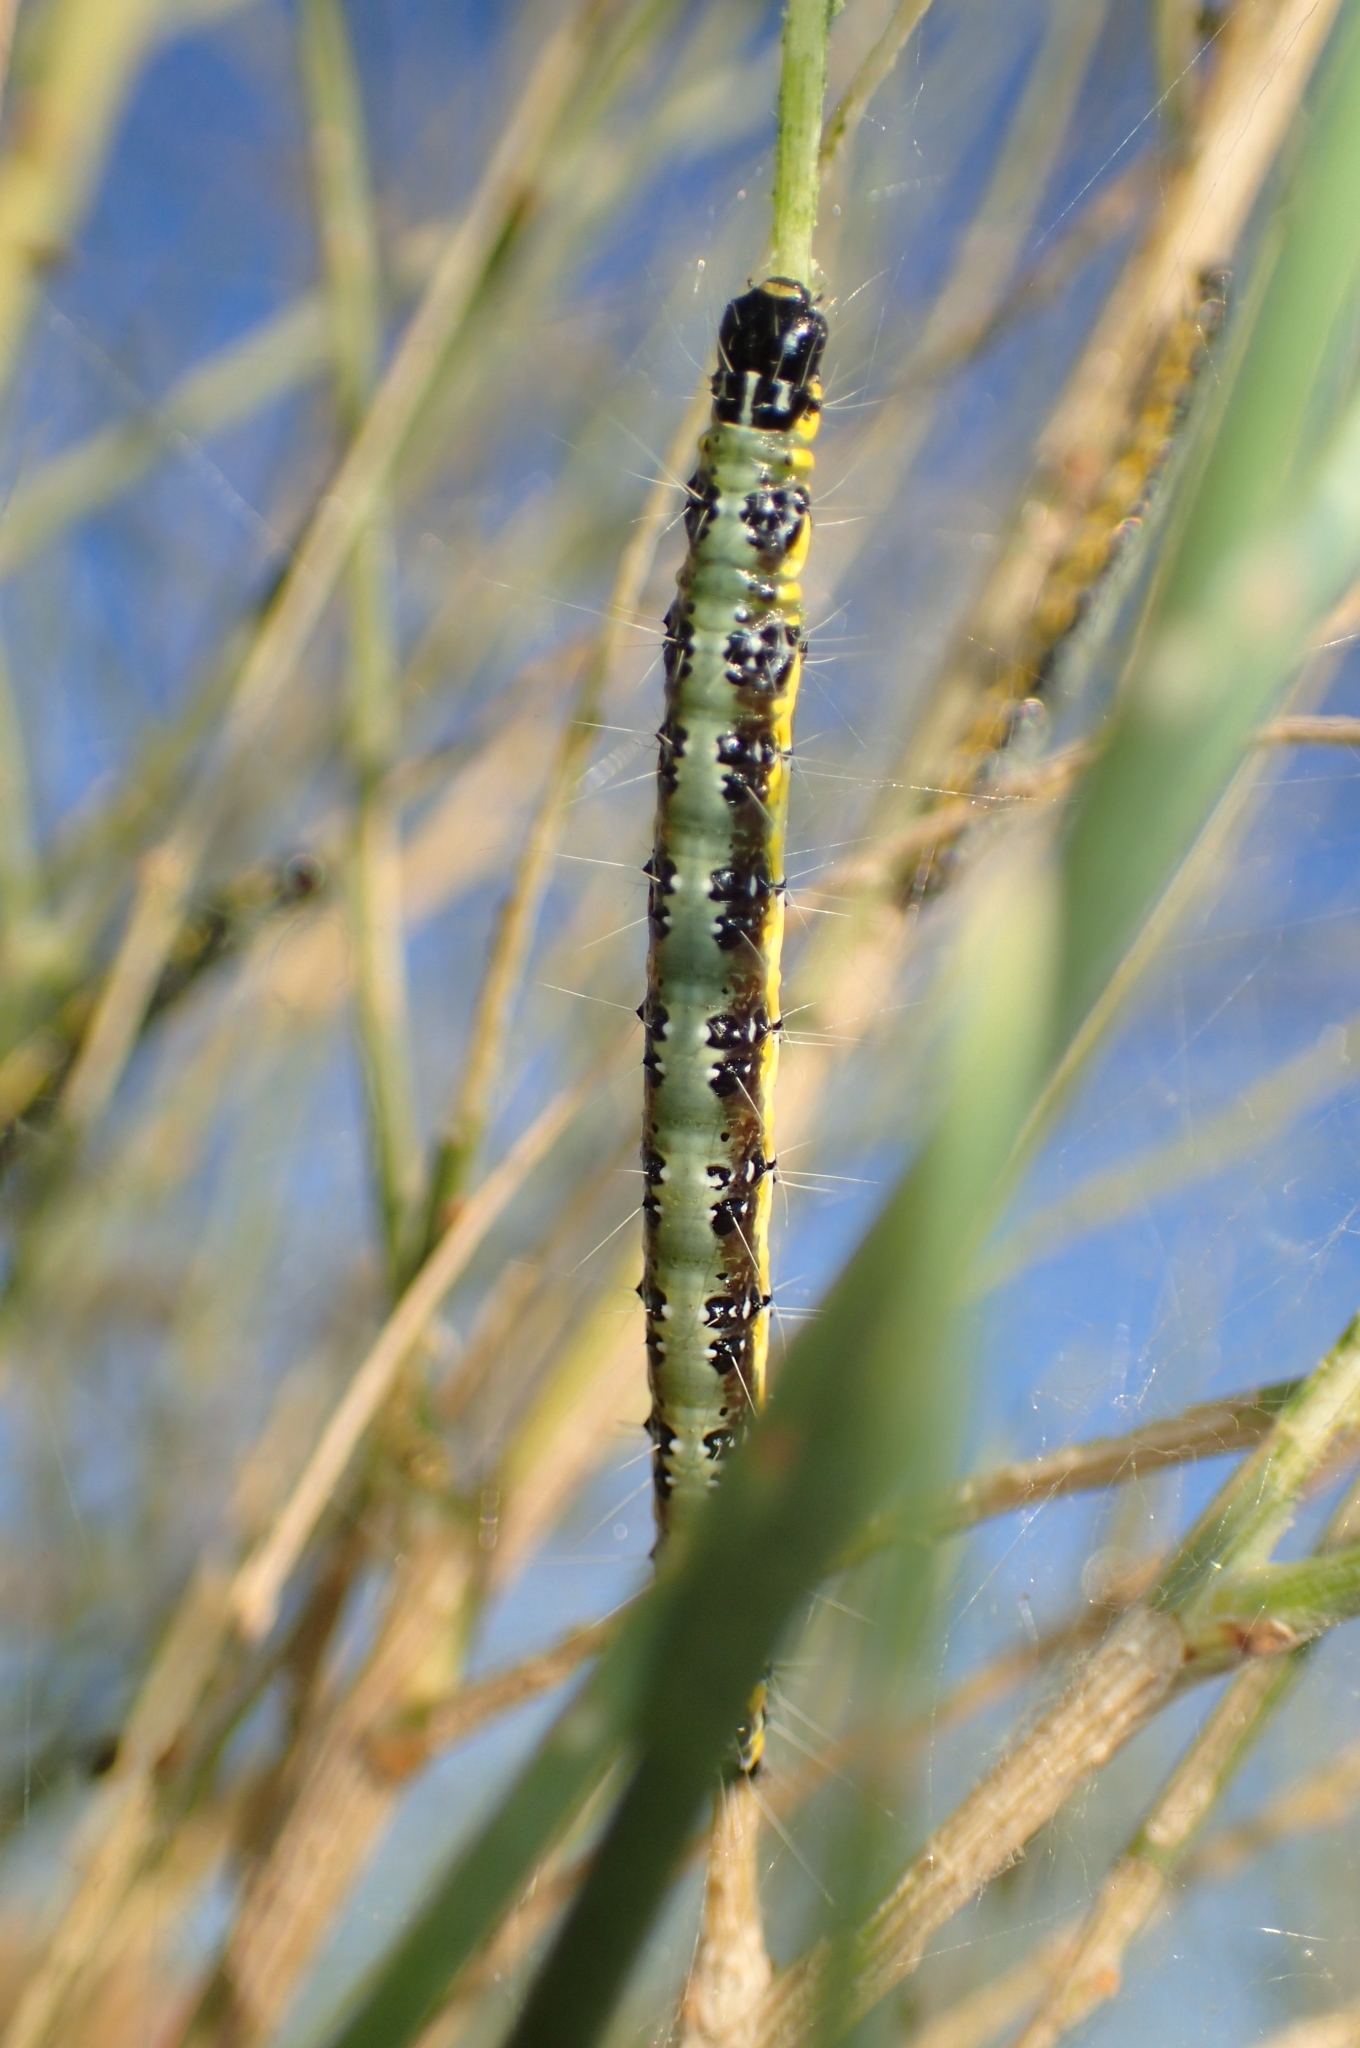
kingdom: Animalia
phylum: Arthropoda
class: Insecta
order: Lepidoptera
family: Crambidae
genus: Uresiphita
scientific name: Uresiphita gilvata
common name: Yellow-underwing pearl
